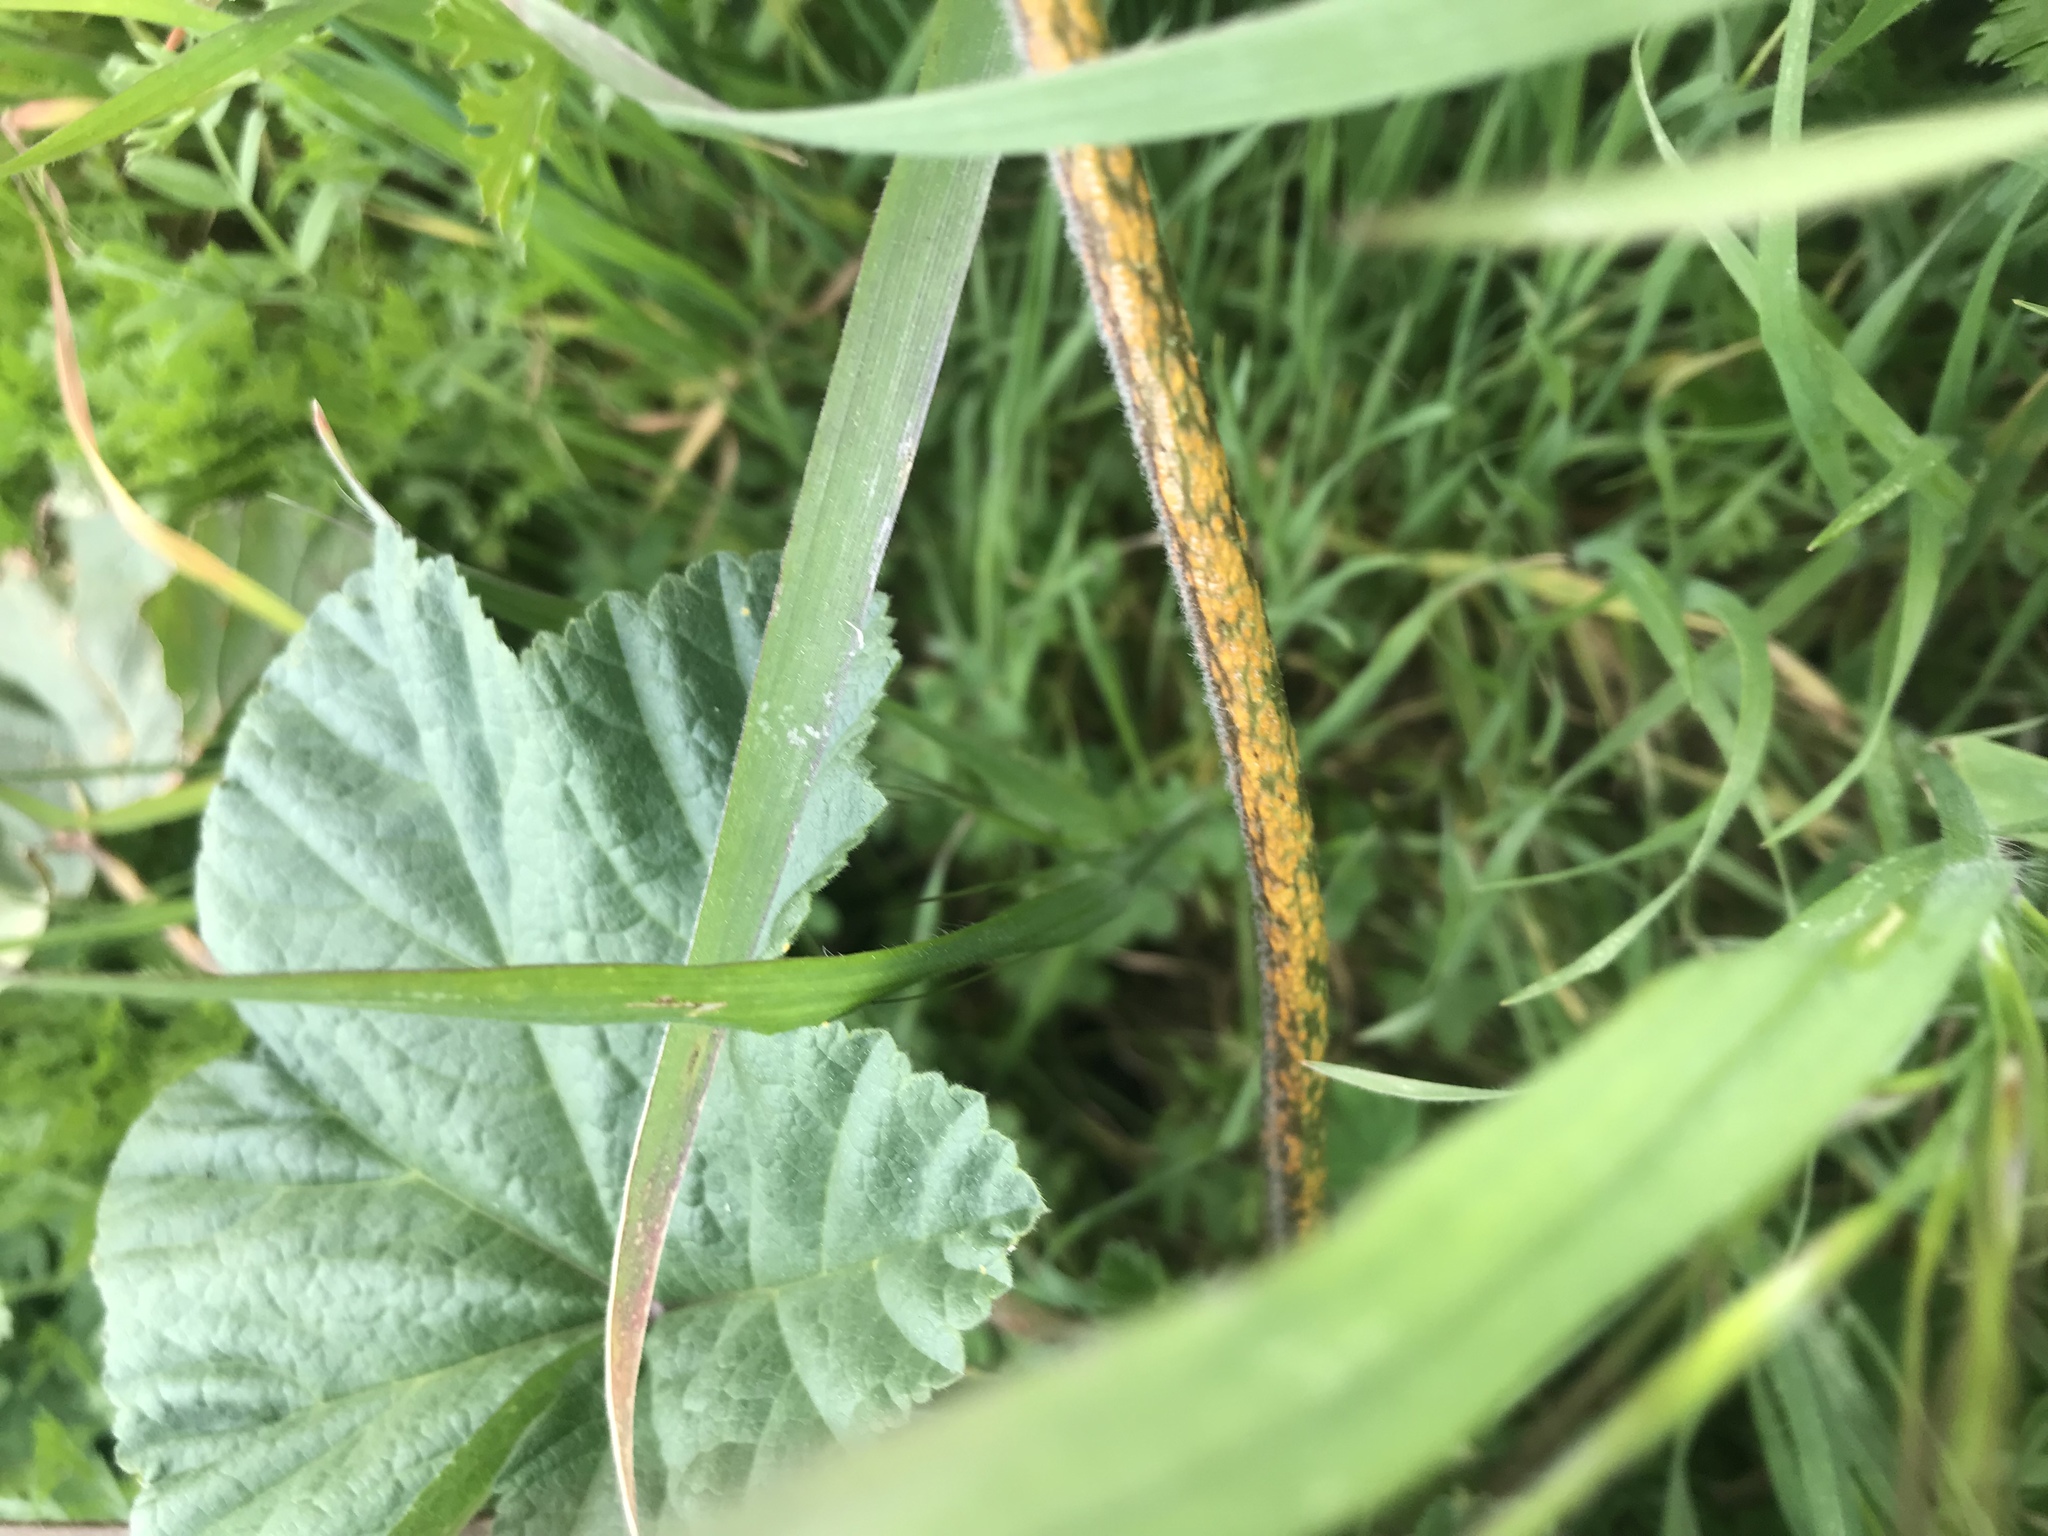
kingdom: Fungi
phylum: Basidiomycota
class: Pucciniomycetes
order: Pucciniales
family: Pucciniaceae
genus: Puccinia
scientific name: Puccinia malvacearum
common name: Hollyhock rust
